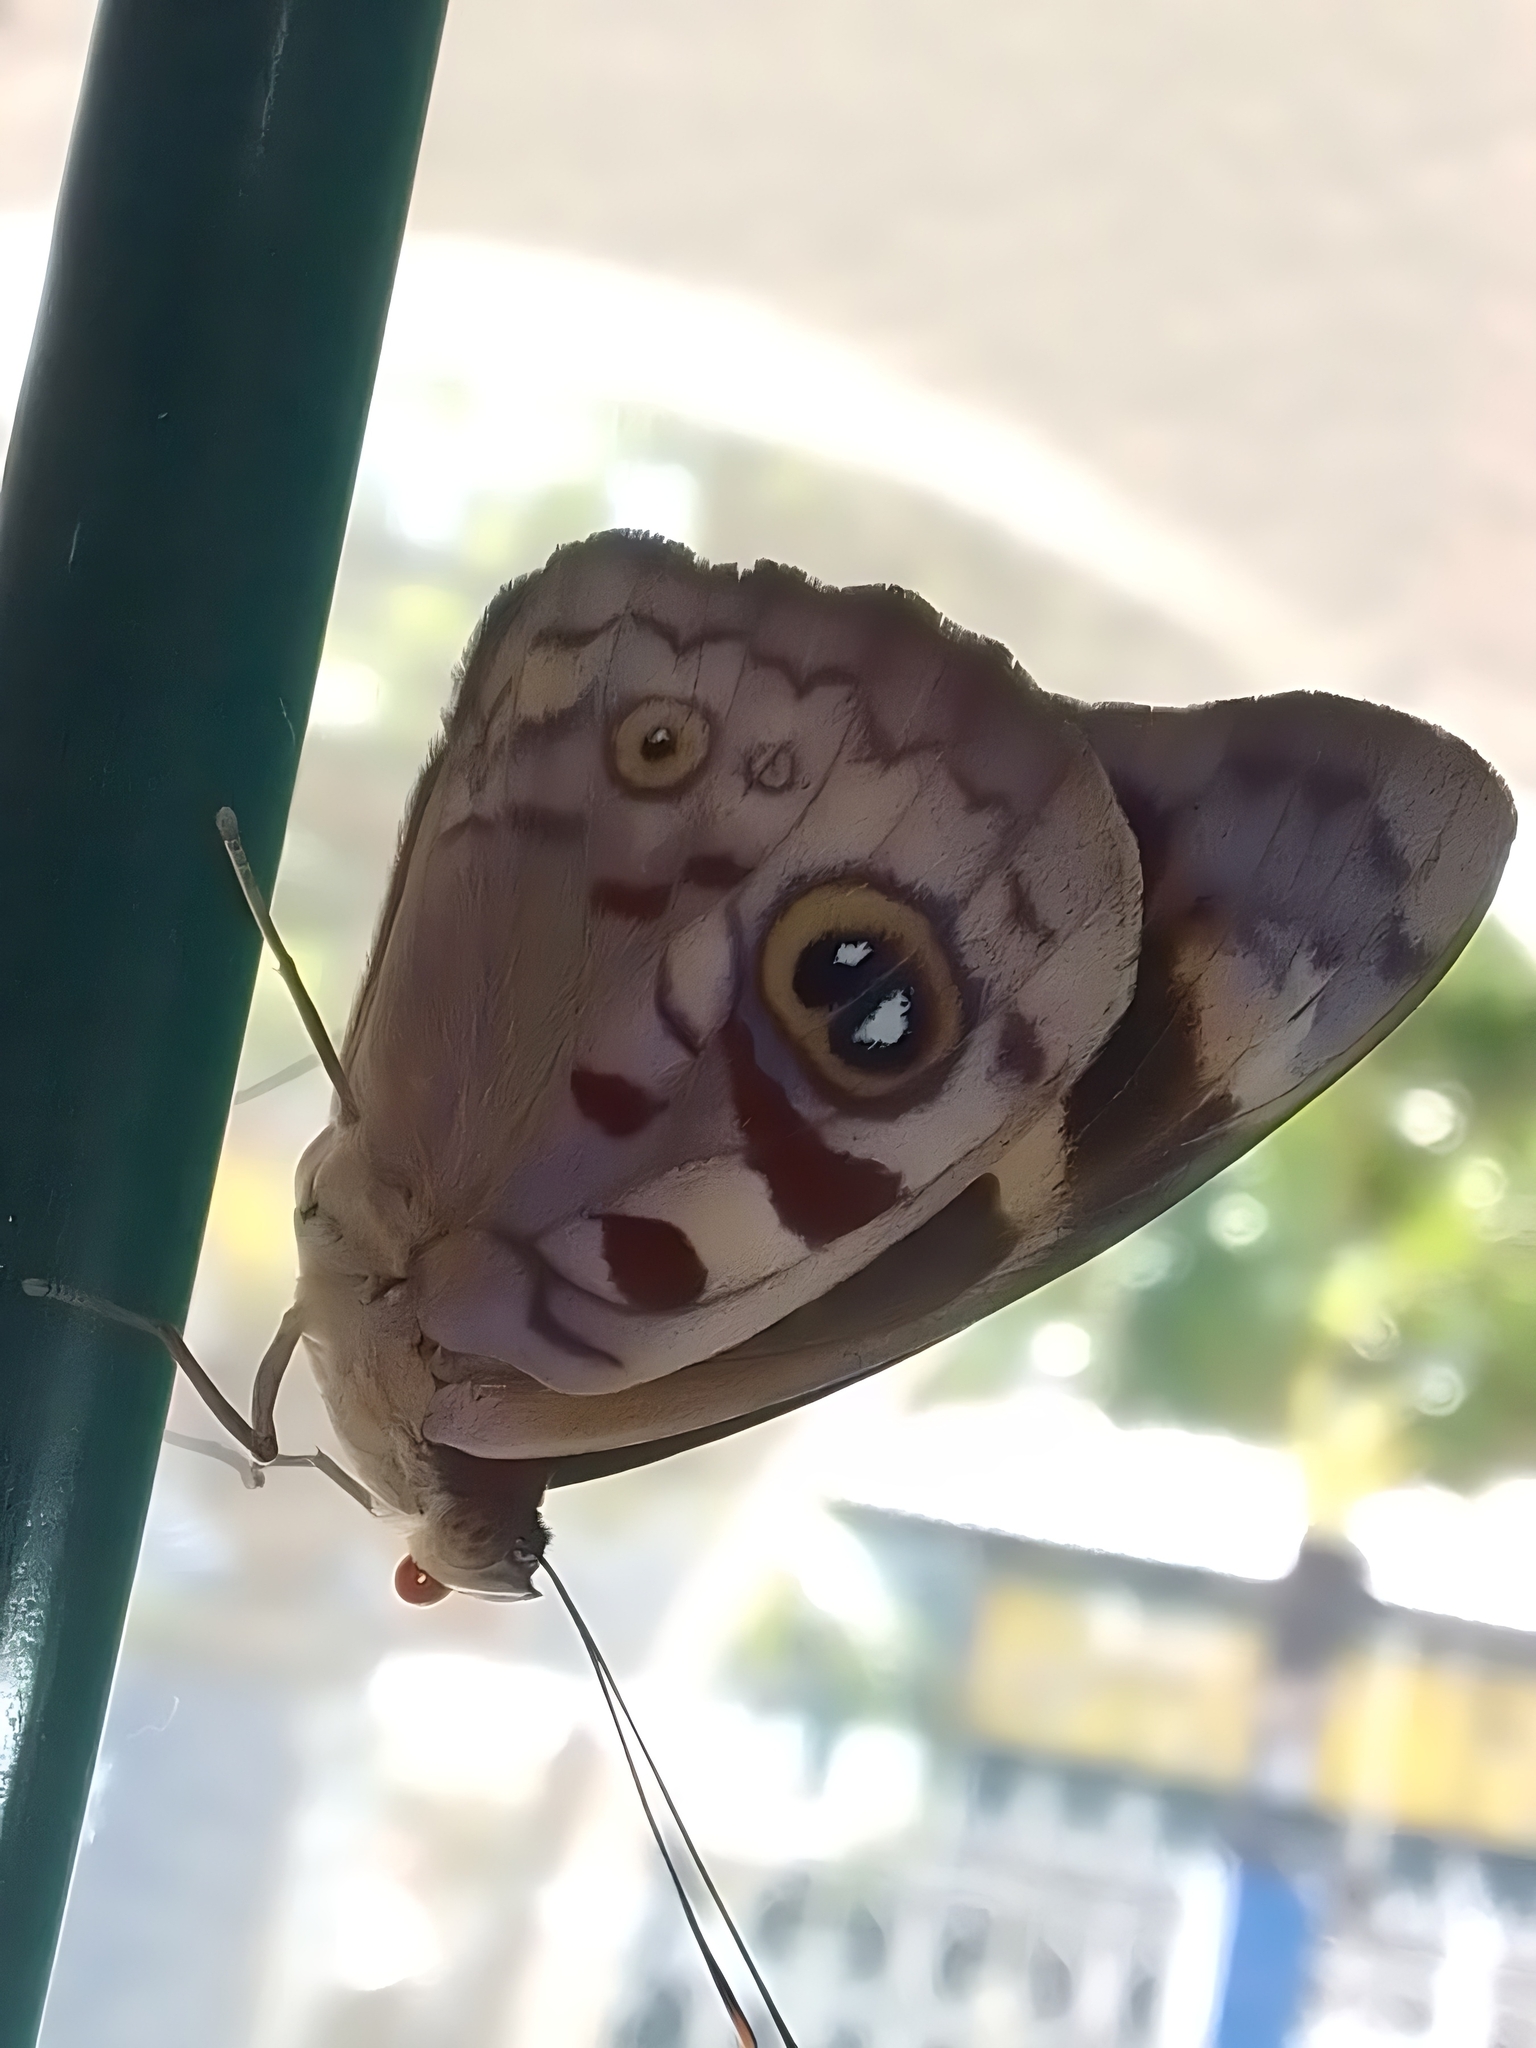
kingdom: Animalia
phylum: Arthropoda
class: Insecta
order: Lepidoptera
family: Nymphalidae
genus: Eunica
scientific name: Eunica anna
